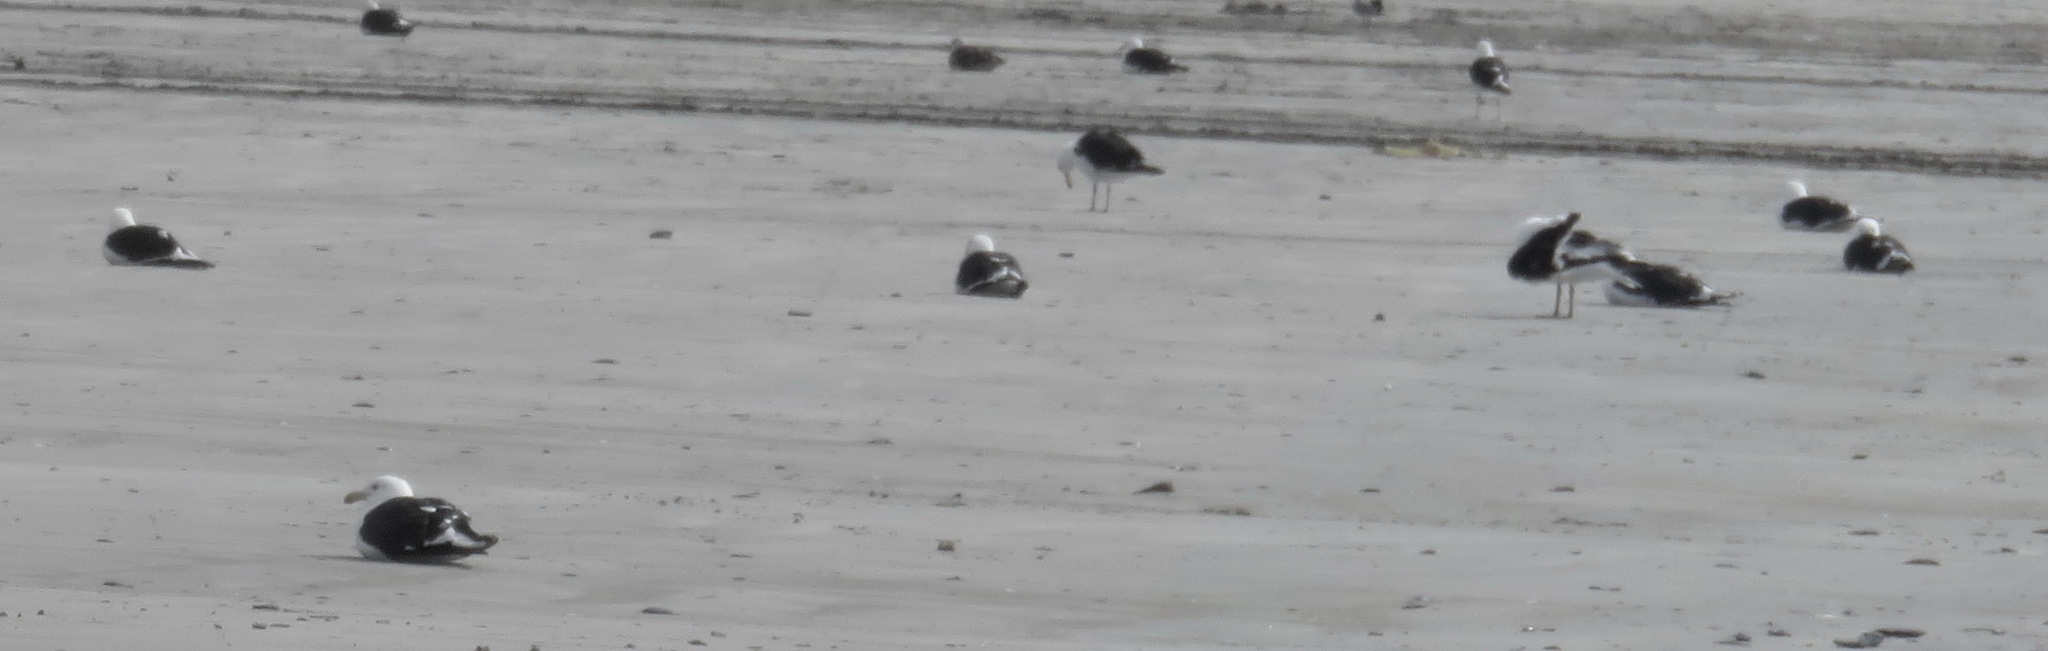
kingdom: Animalia
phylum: Chordata
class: Aves
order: Charadriiformes
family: Laridae
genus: Larus
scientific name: Larus dominicanus
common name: Kelp gull
